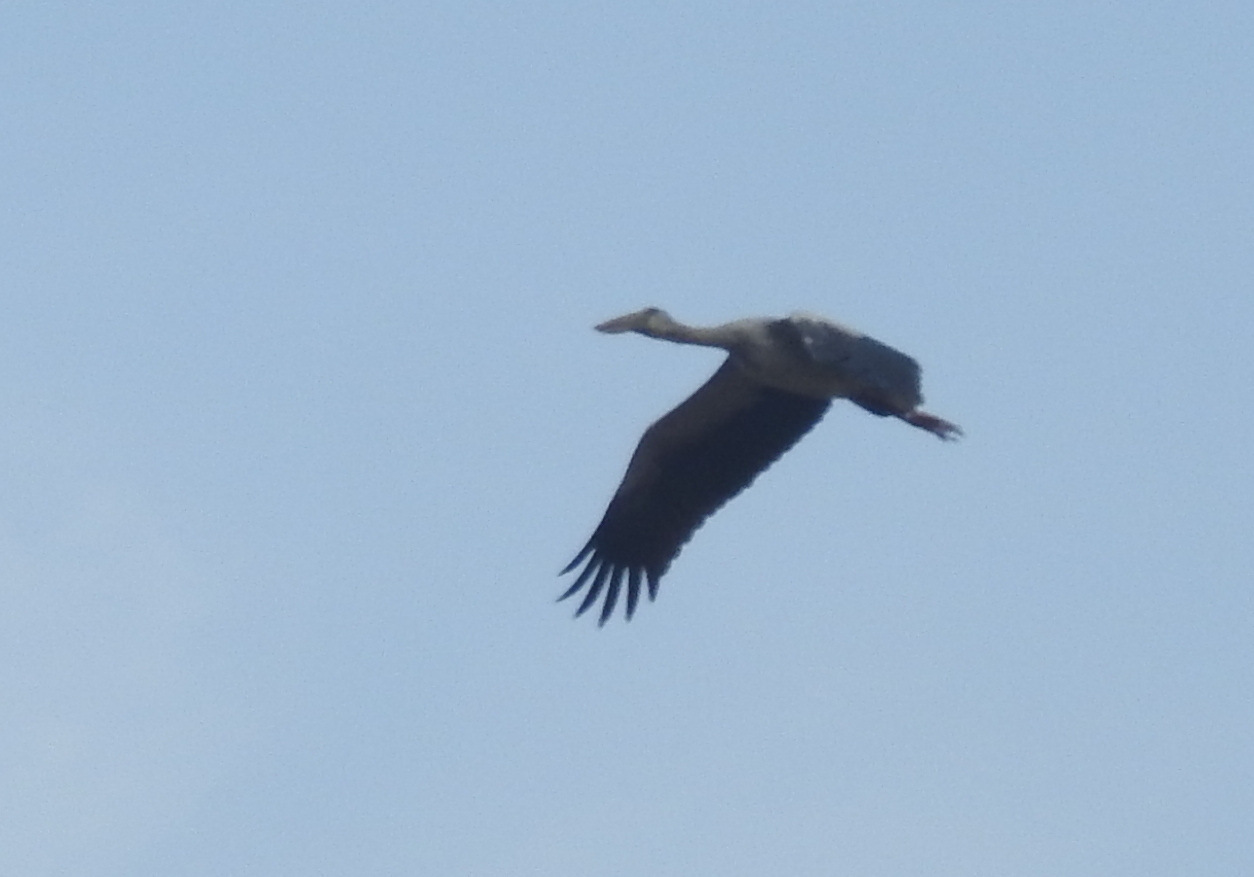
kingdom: Animalia
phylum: Chordata
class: Aves
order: Ciconiiformes
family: Ciconiidae
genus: Anastomus
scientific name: Anastomus oscitans
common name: Asian openbill
